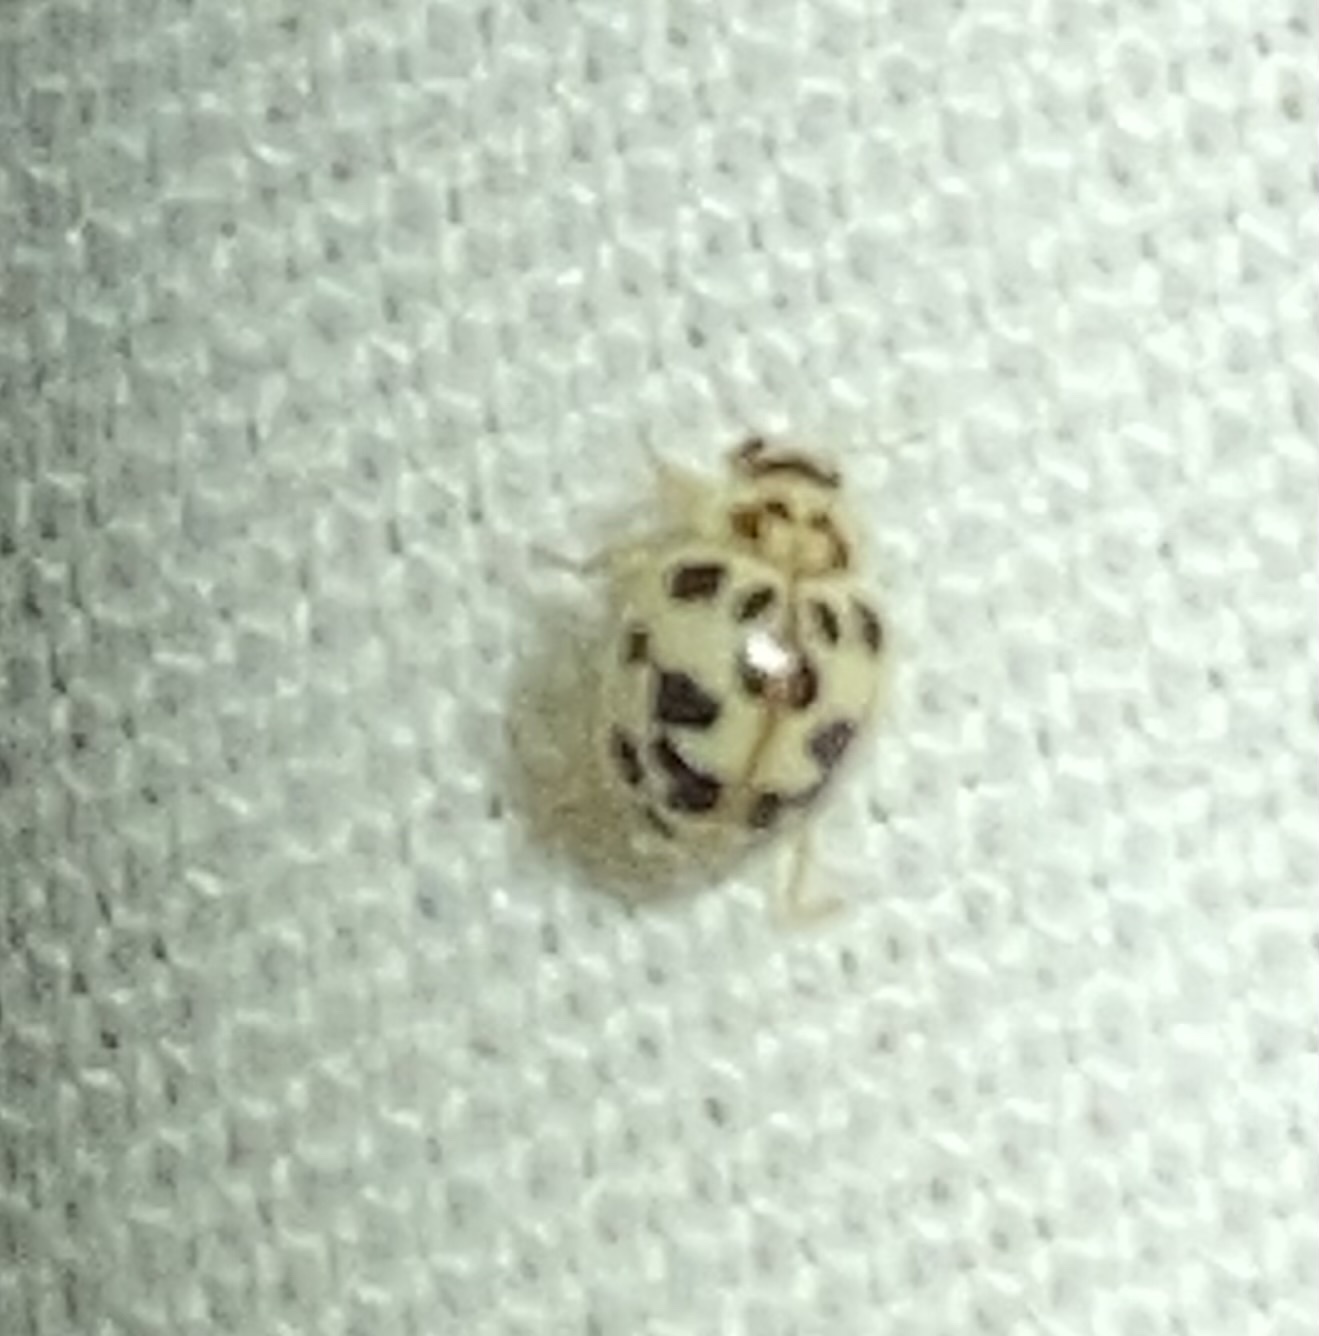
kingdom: Animalia
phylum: Arthropoda
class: Insecta
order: Coleoptera
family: Coccinellidae
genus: Psyllobora
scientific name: Psyllobora parvinotata
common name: Small-spotted psyllobora
